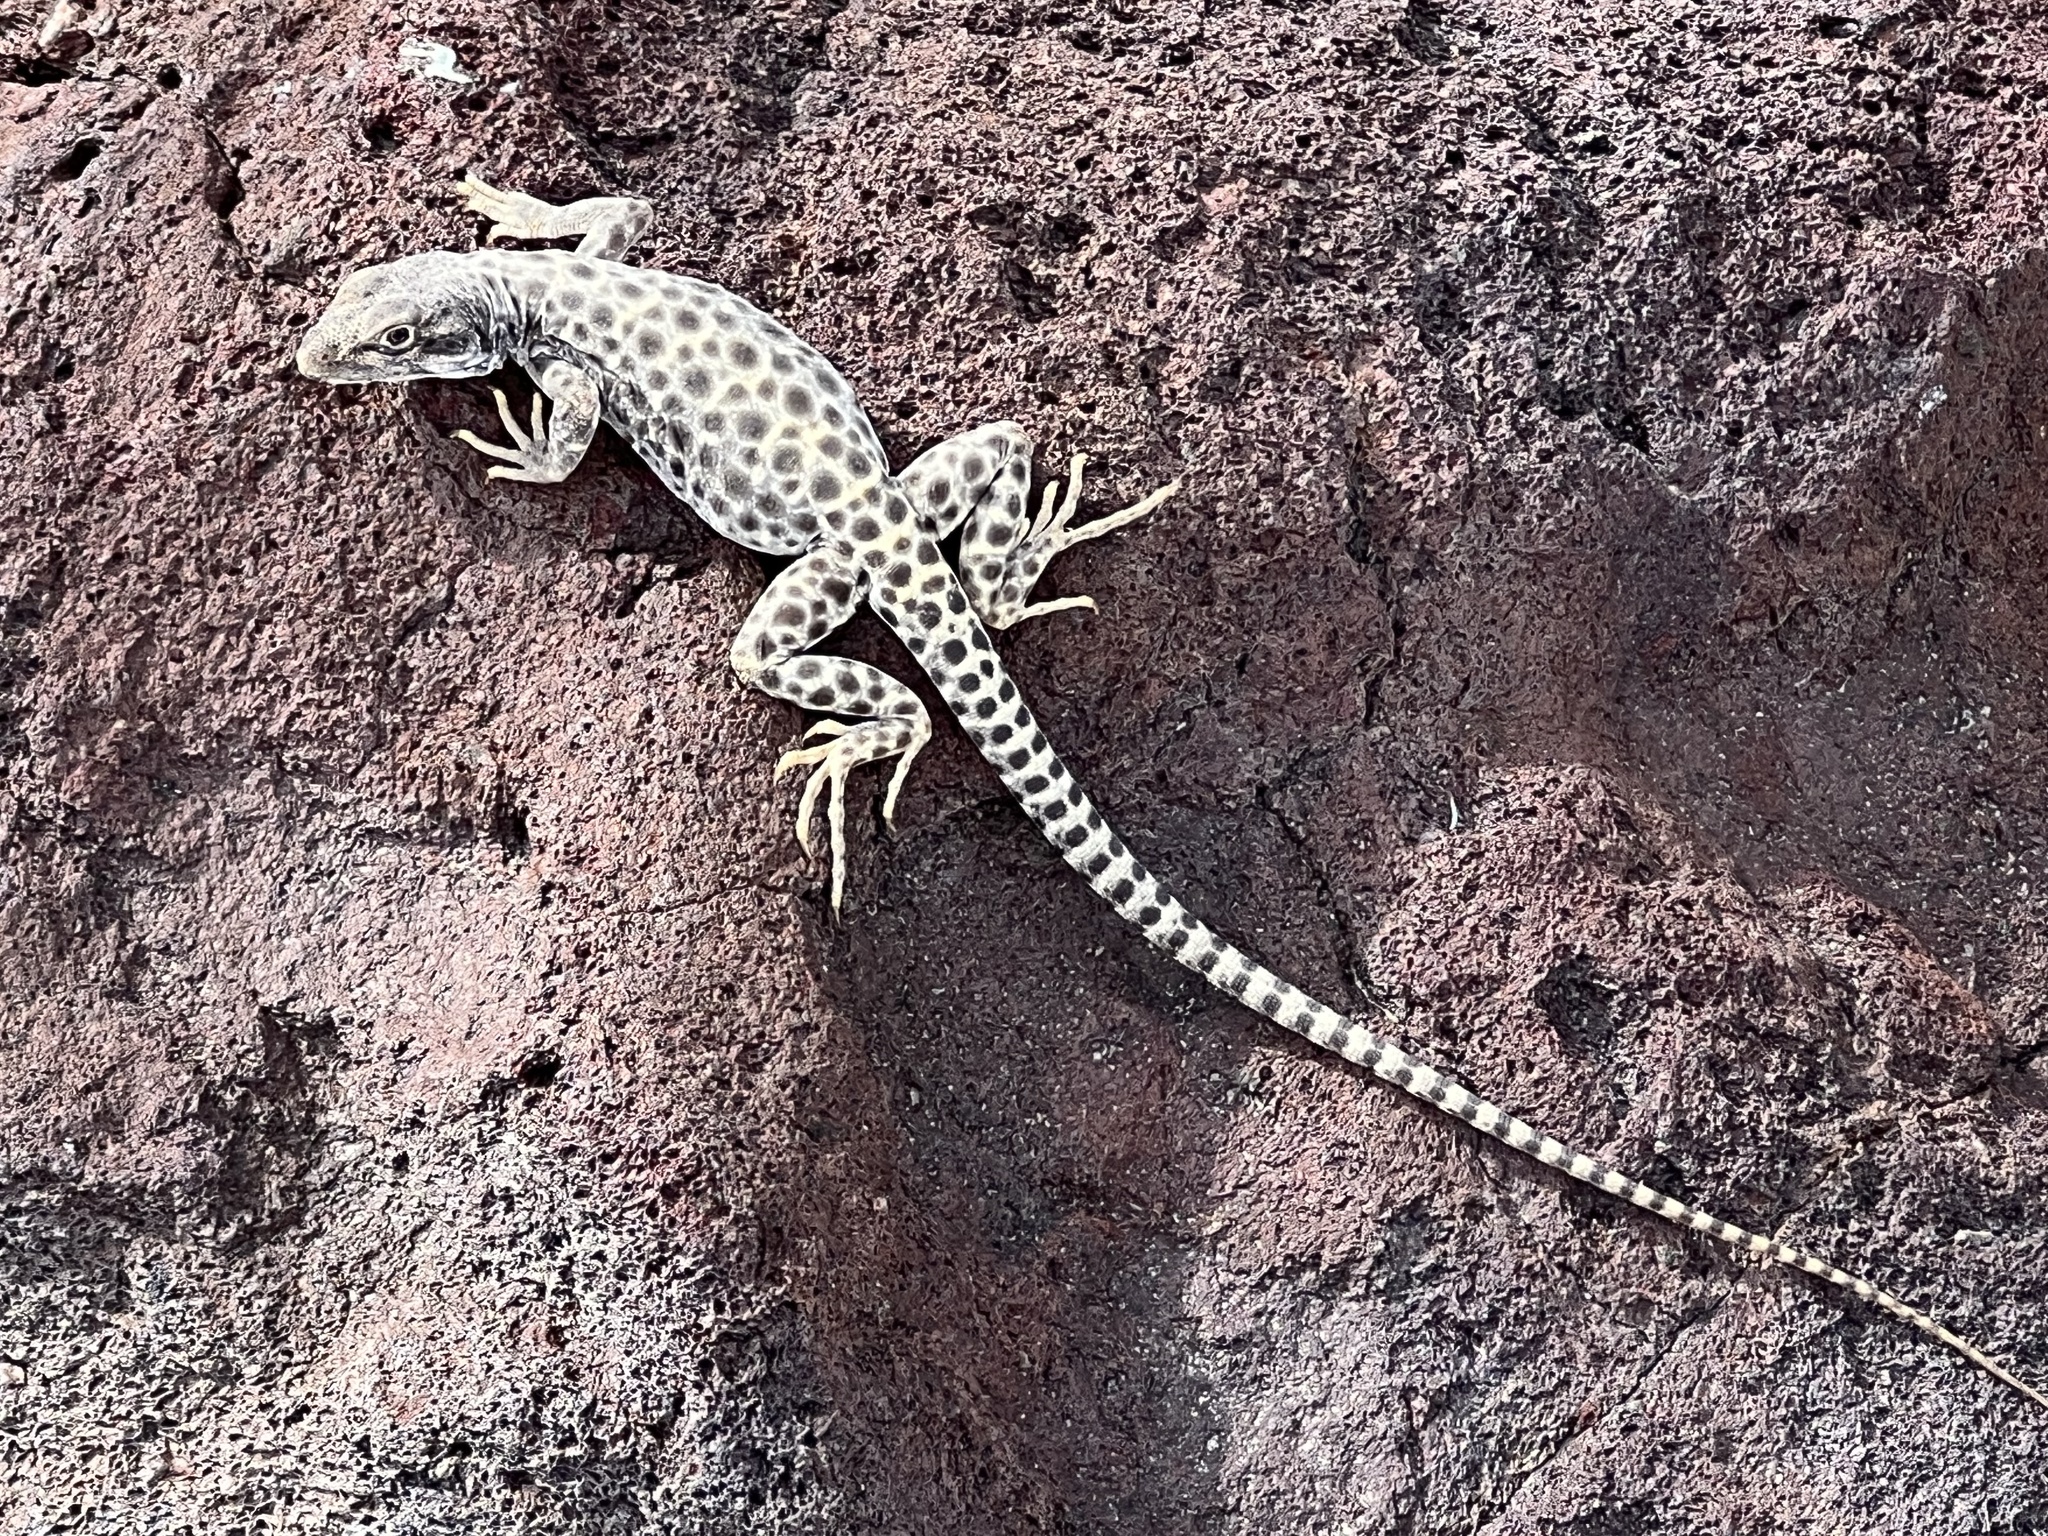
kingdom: Animalia
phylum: Chordata
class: Squamata
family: Crotaphytidae
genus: Gambelia
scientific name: Gambelia wislizenii
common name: Longnose leopard lizard
